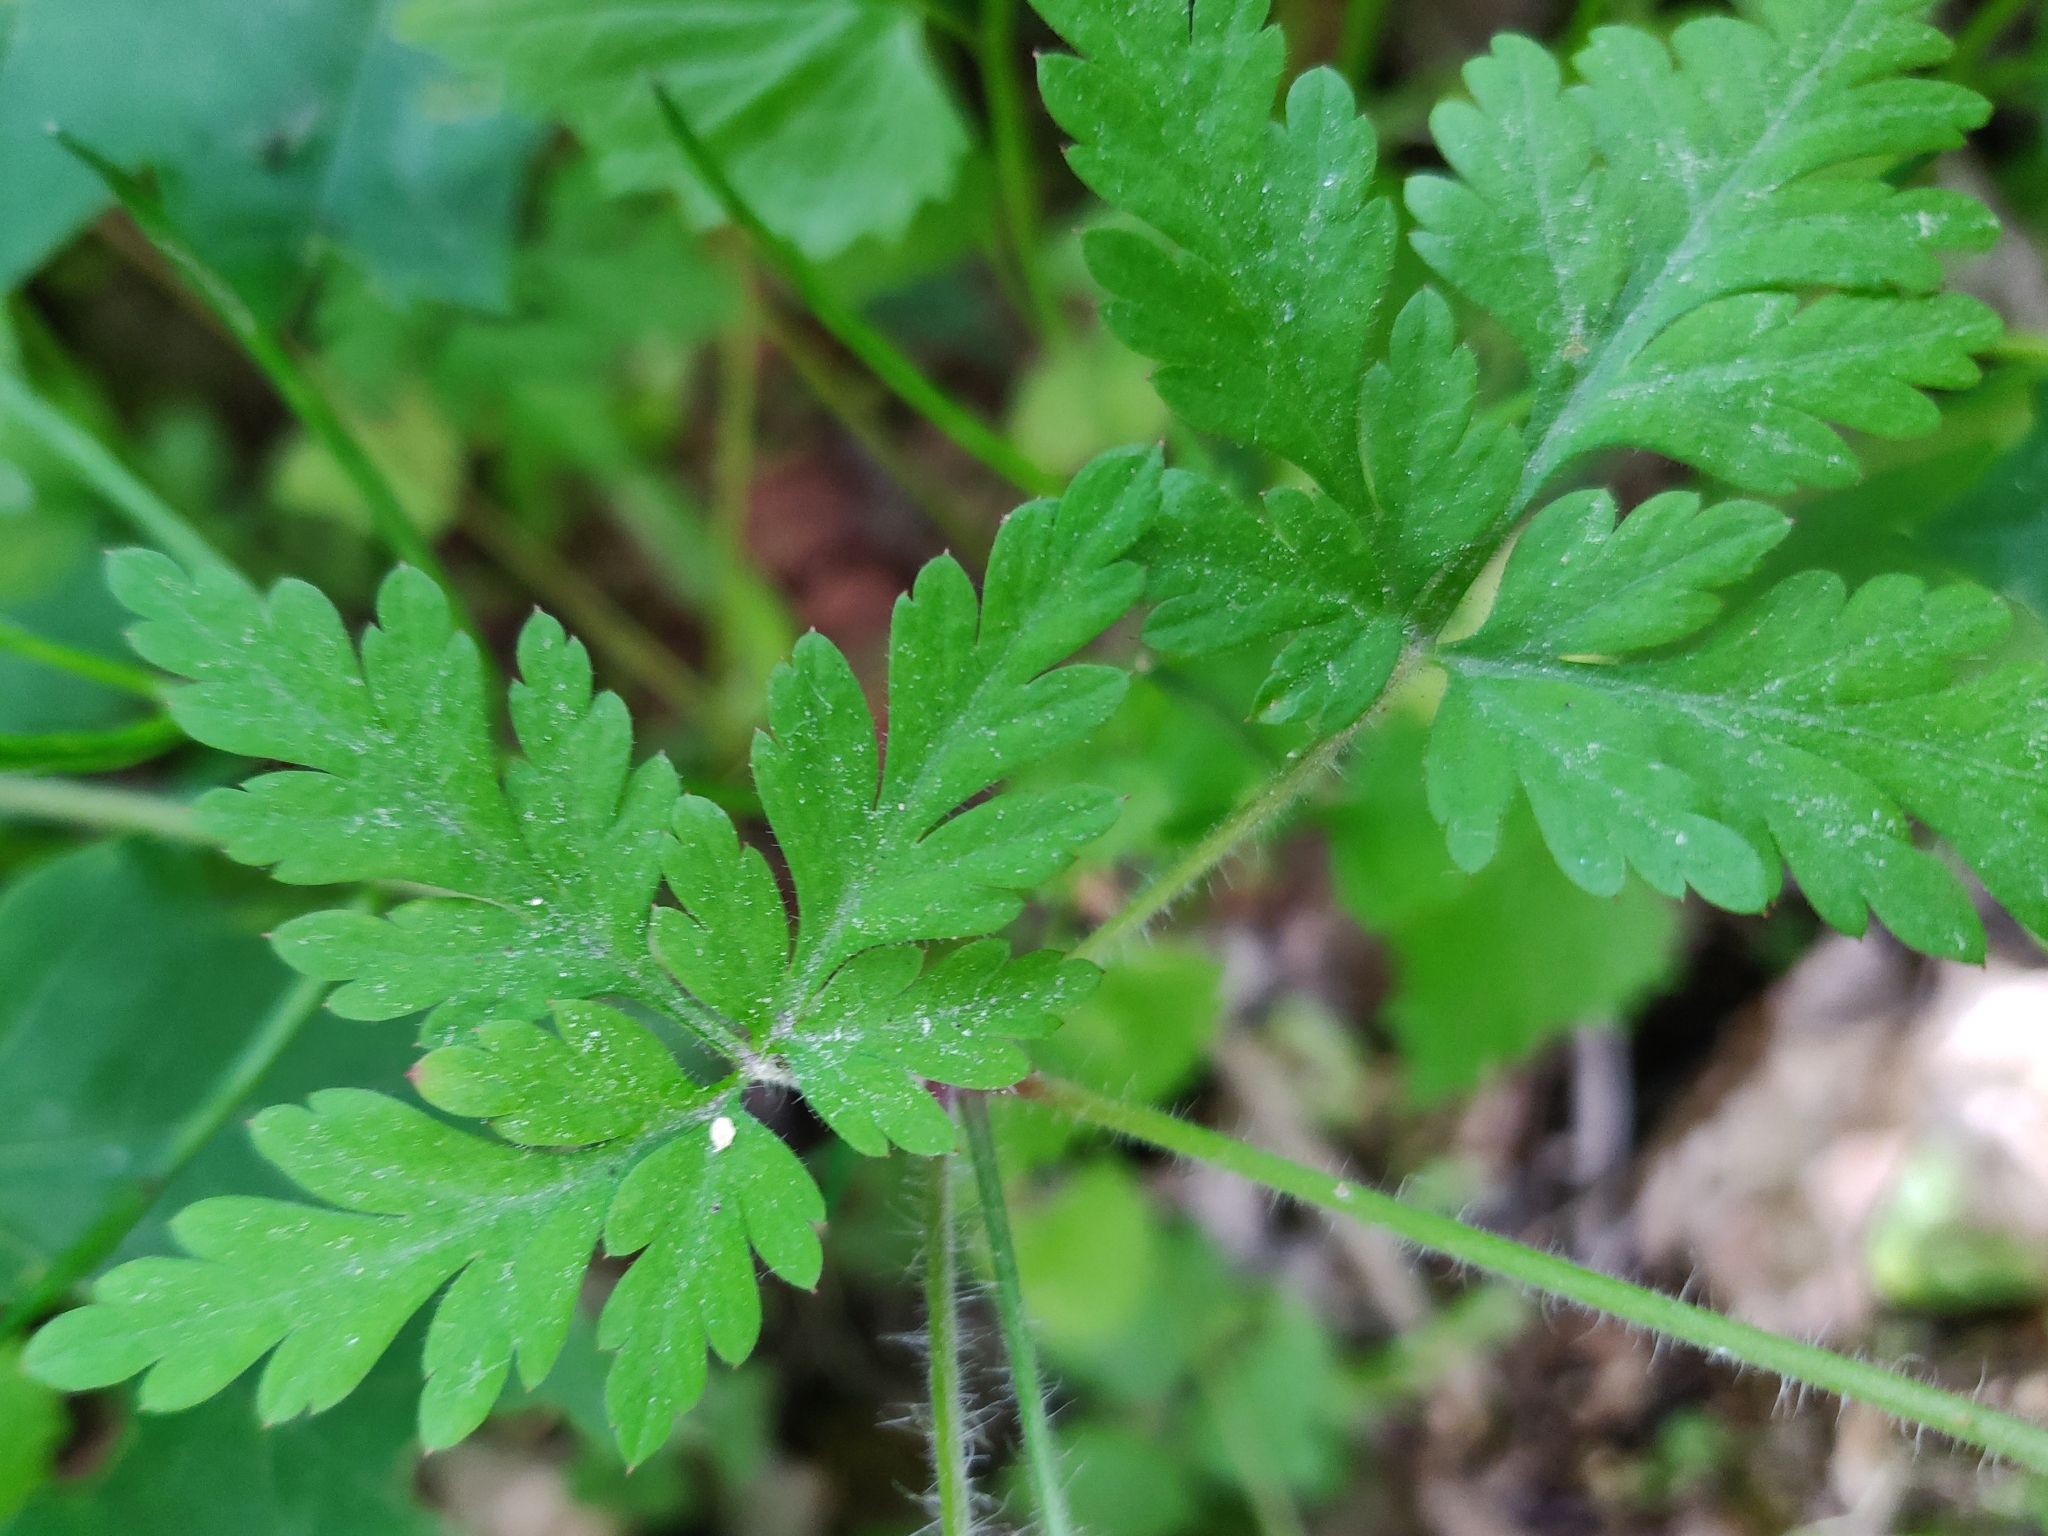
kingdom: Plantae
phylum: Tracheophyta
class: Magnoliopsida
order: Geraniales
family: Geraniaceae
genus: Geranium
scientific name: Geranium robertianum
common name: Herb-robert
